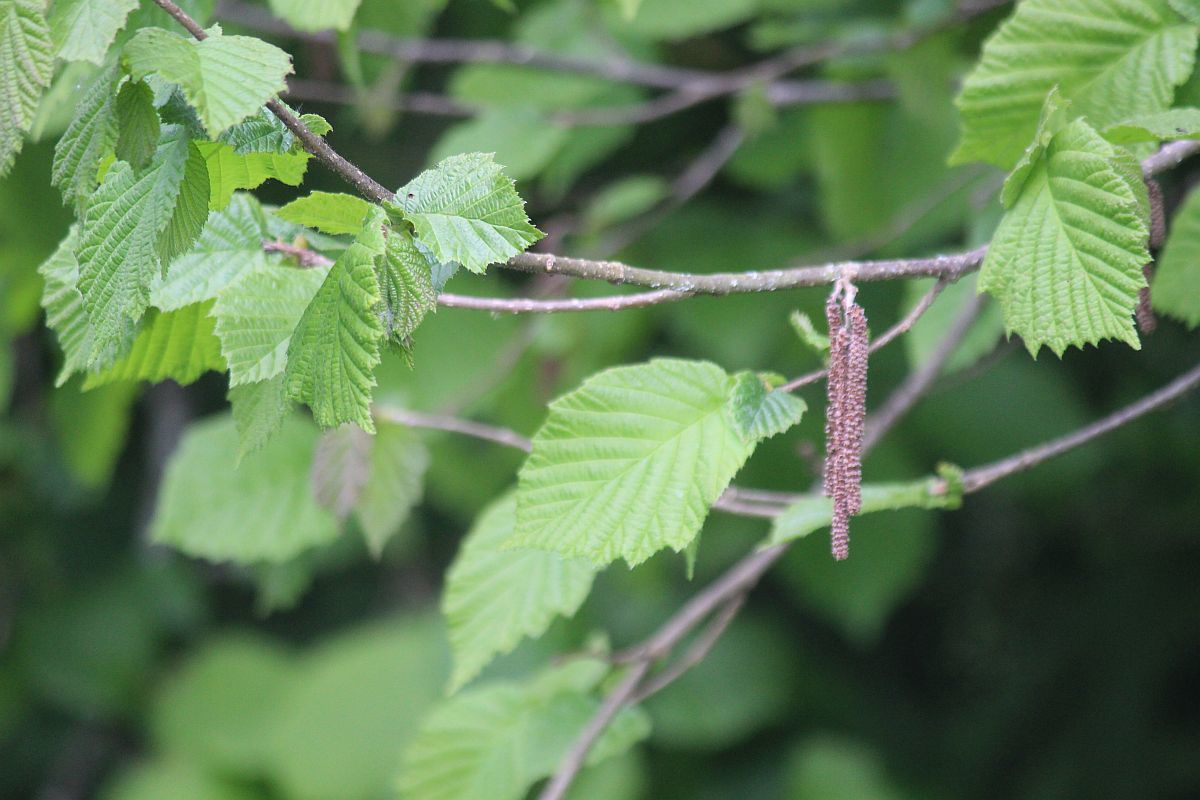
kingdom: Plantae
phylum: Tracheophyta
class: Magnoliopsida
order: Fagales
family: Betulaceae
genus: Corylus
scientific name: Corylus avellana
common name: European hazel
